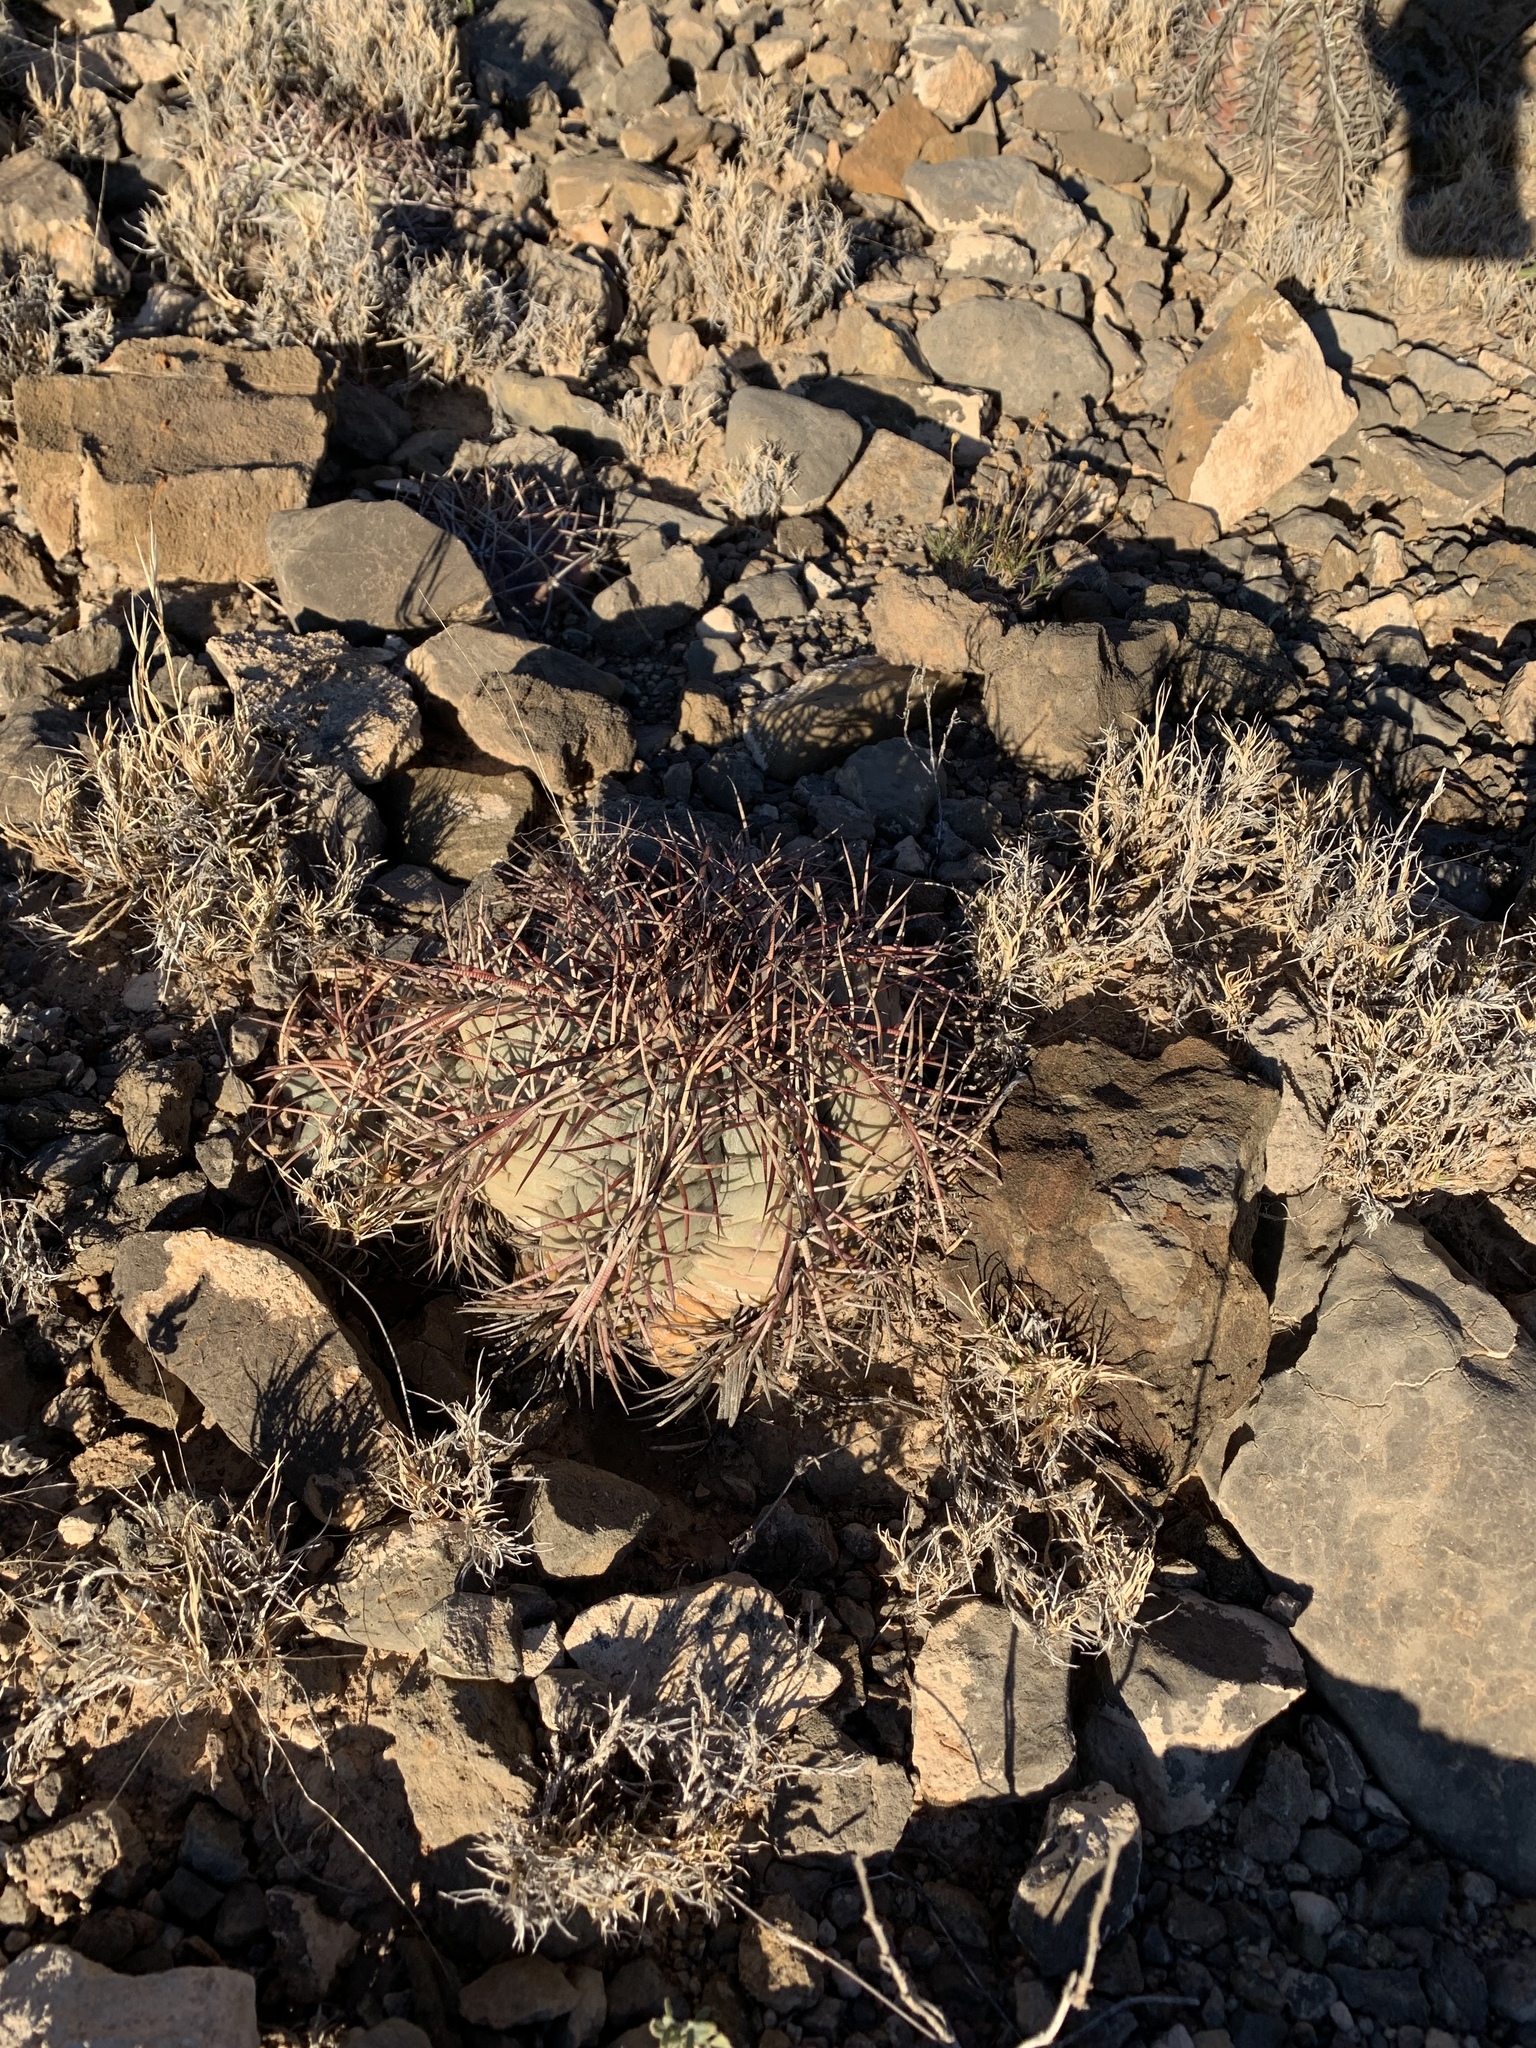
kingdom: Plantae
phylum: Tracheophyta
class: Magnoliopsida
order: Caryophyllales
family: Cactaceae
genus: Echinocactus
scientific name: Echinocactus horizonthalonius
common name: Devilshead
